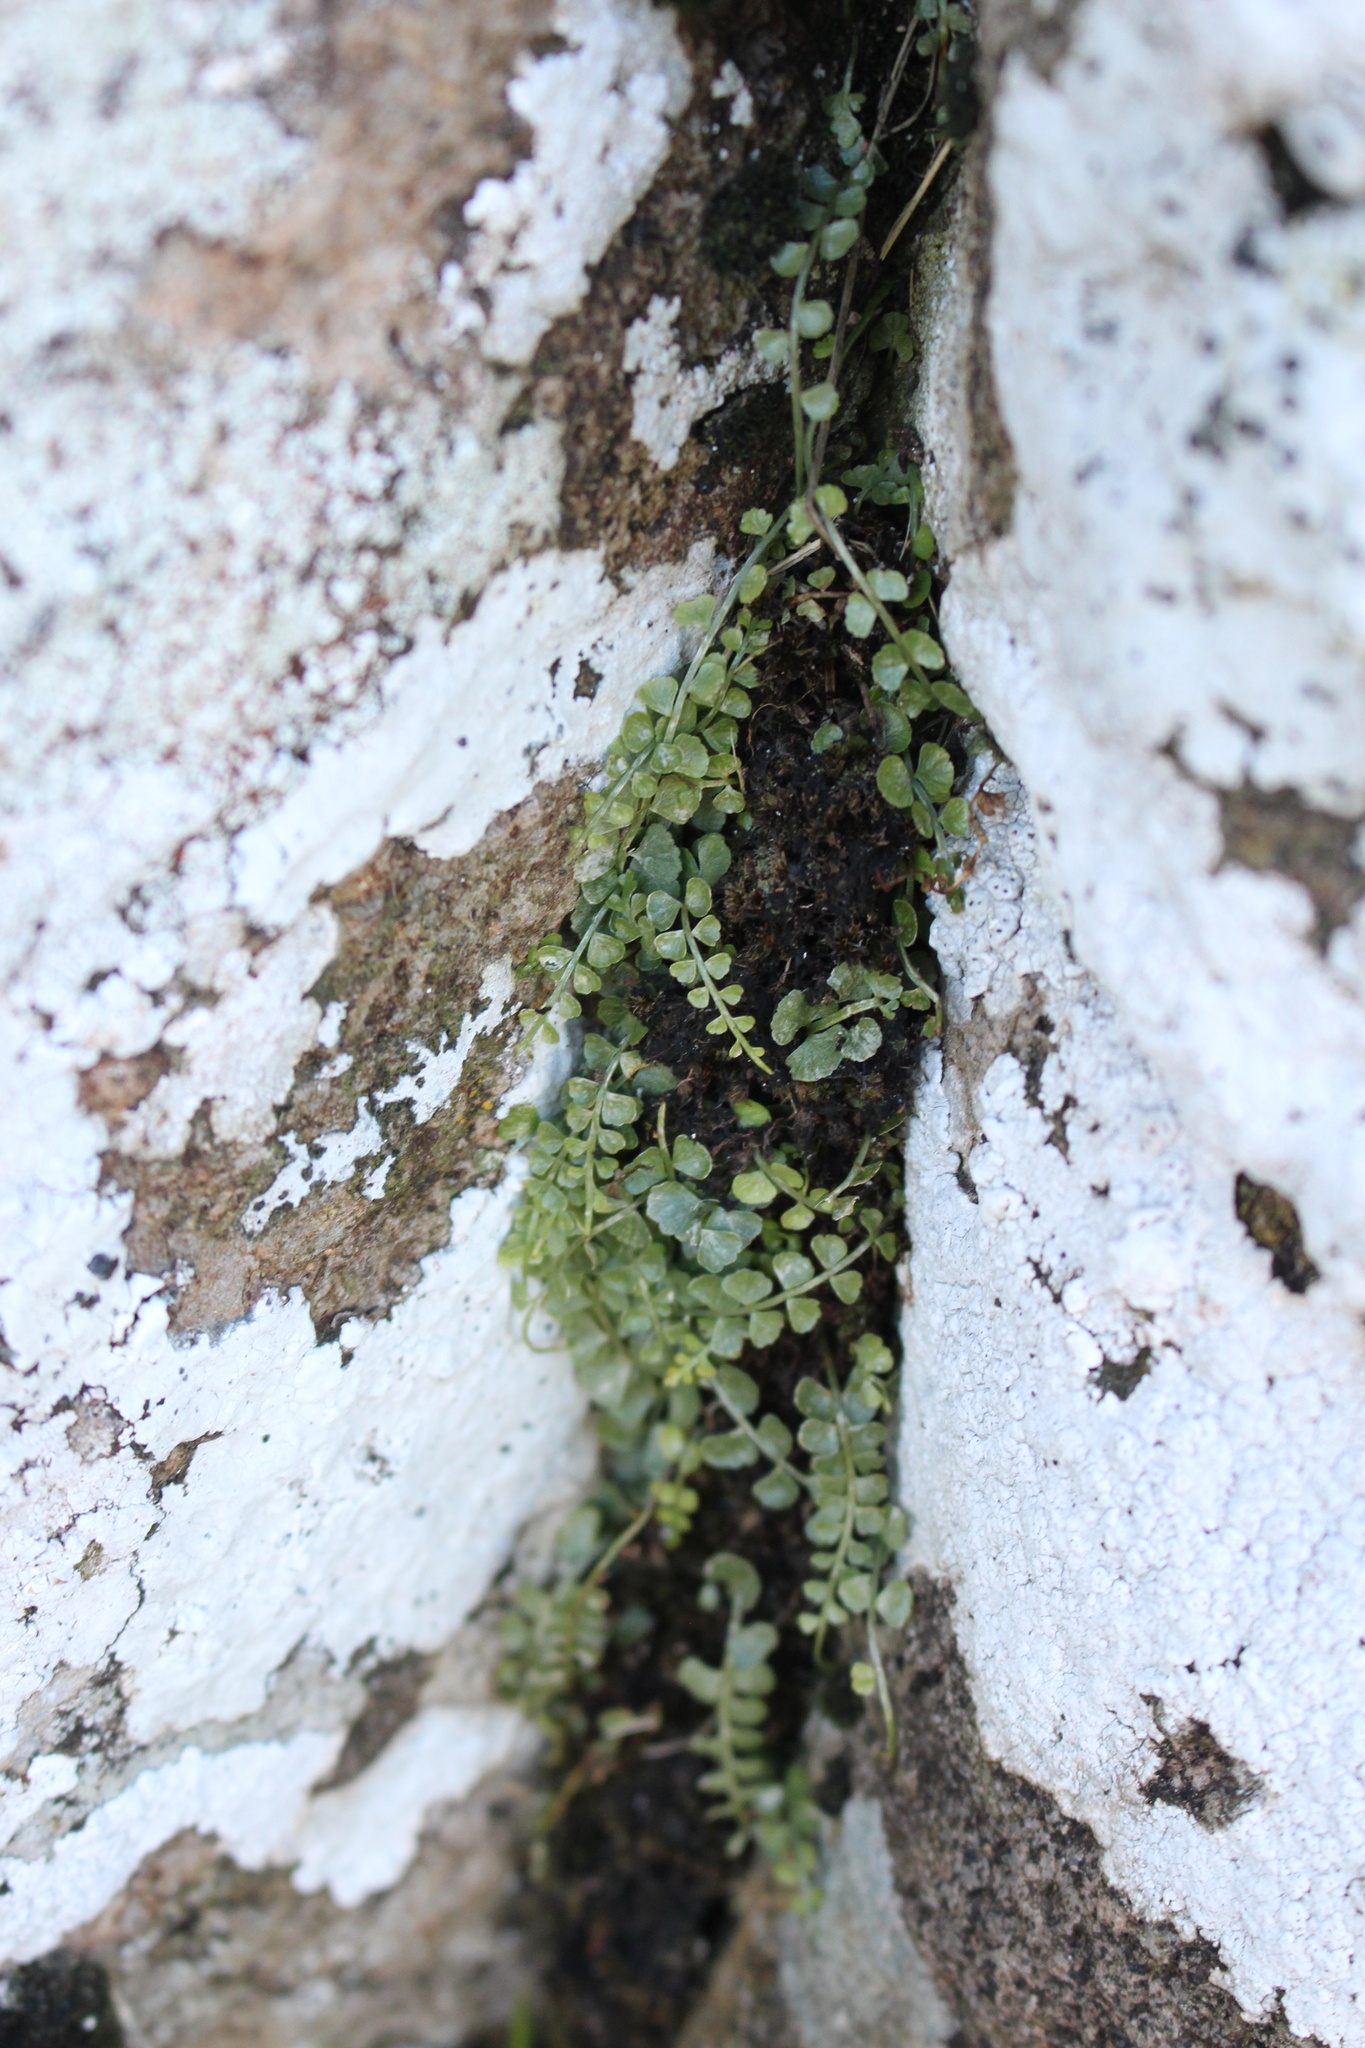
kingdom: Plantae
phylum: Tracheophyta
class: Polypodiopsida
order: Polypodiales
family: Aspleniaceae
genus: Asplenium
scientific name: Asplenium flabellifolium
